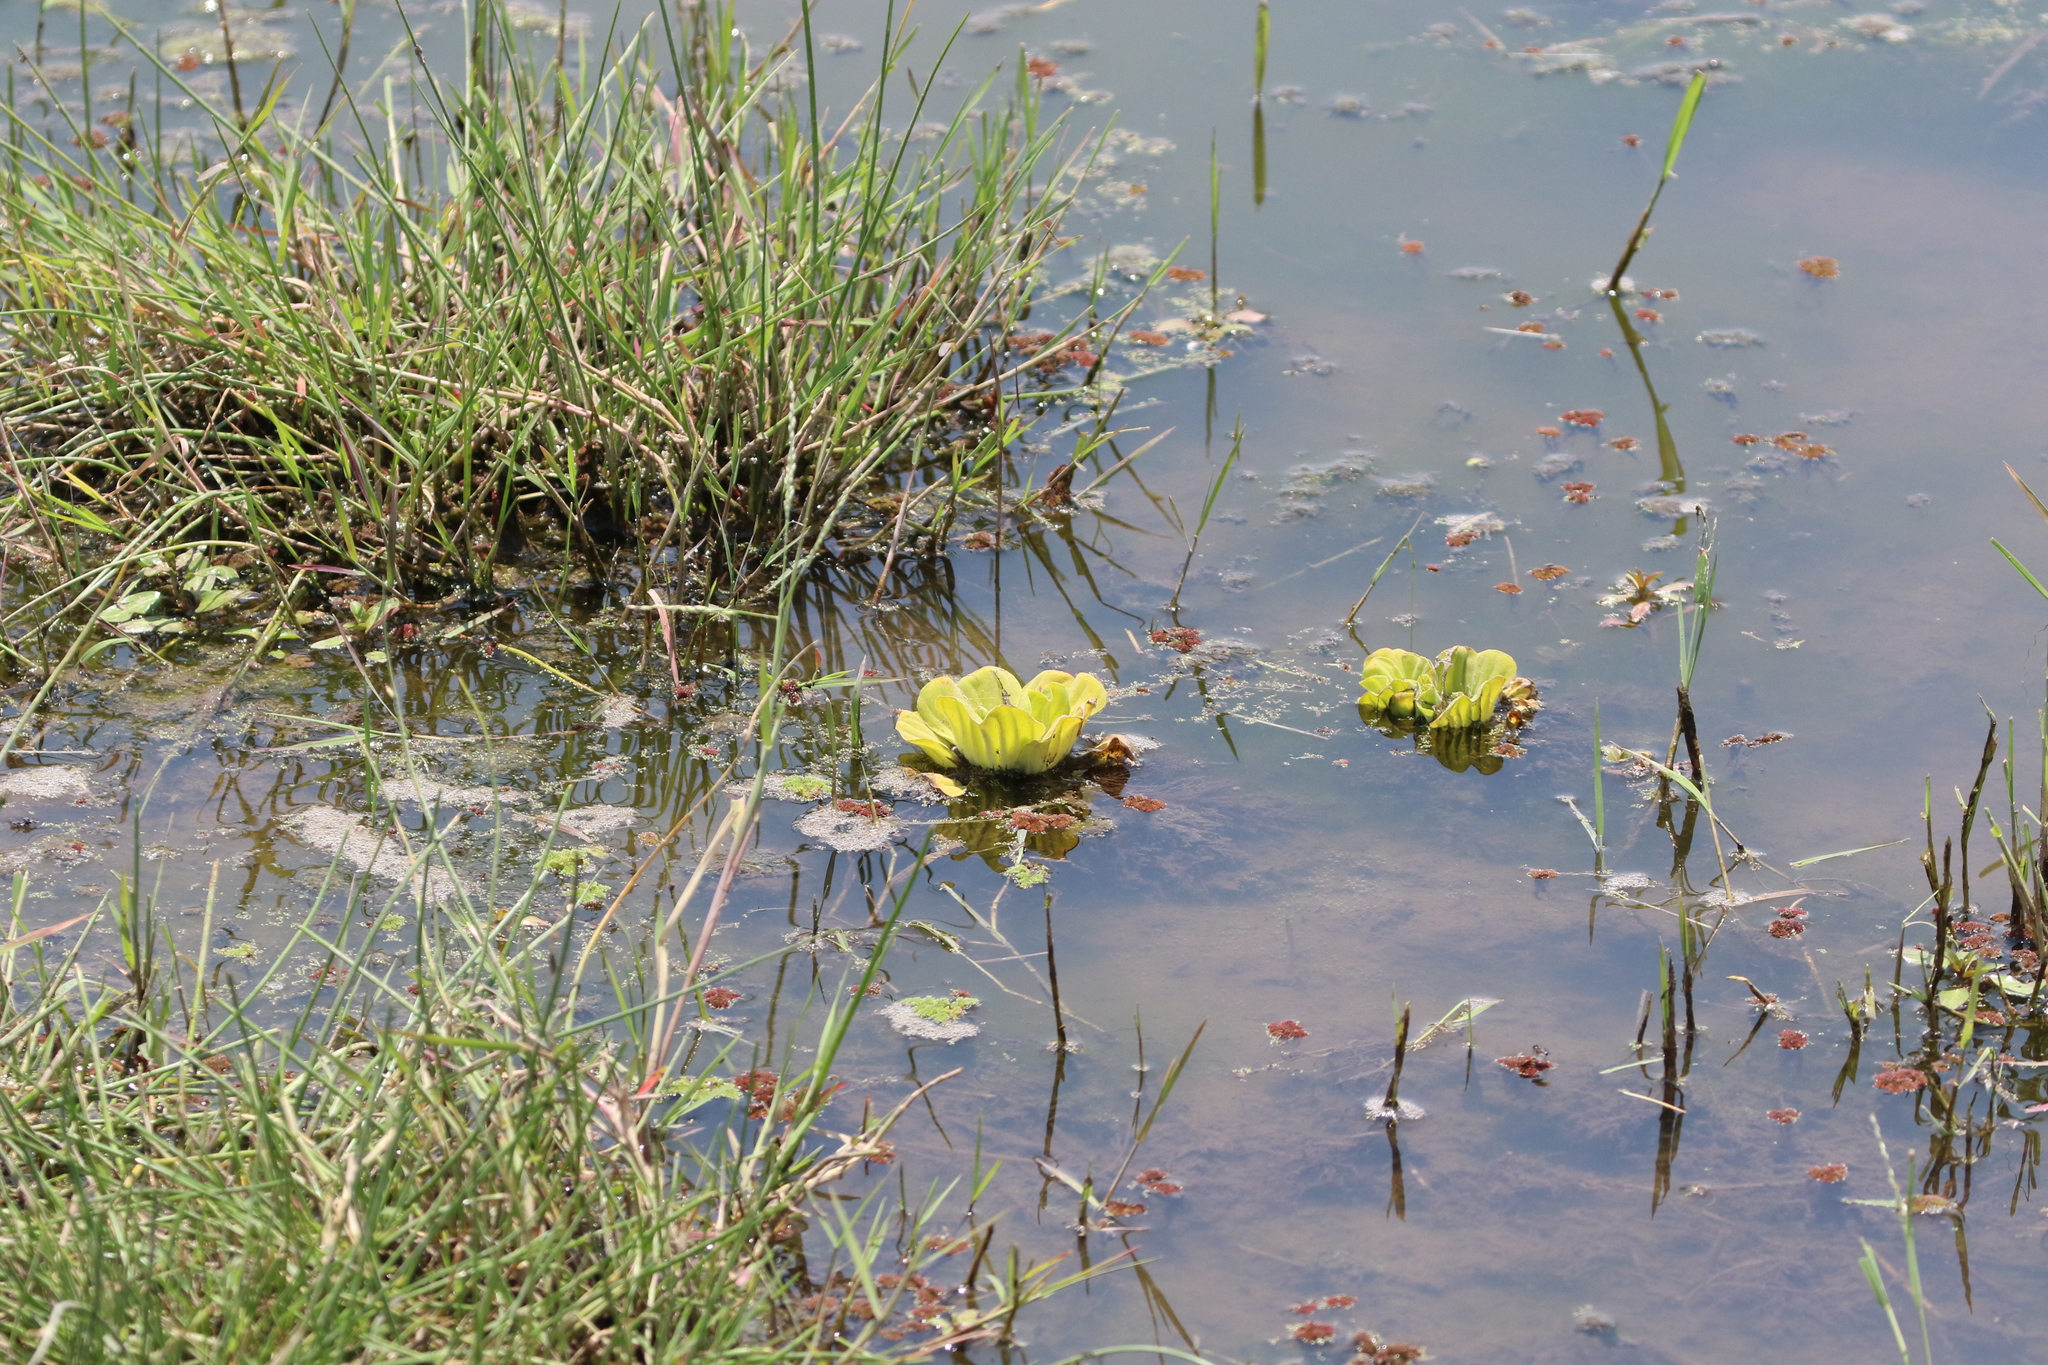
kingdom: Plantae
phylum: Tracheophyta
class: Liliopsida
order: Alismatales
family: Araceae
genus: Pistia
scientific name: Pistia stratiotes
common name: Water lettuce
